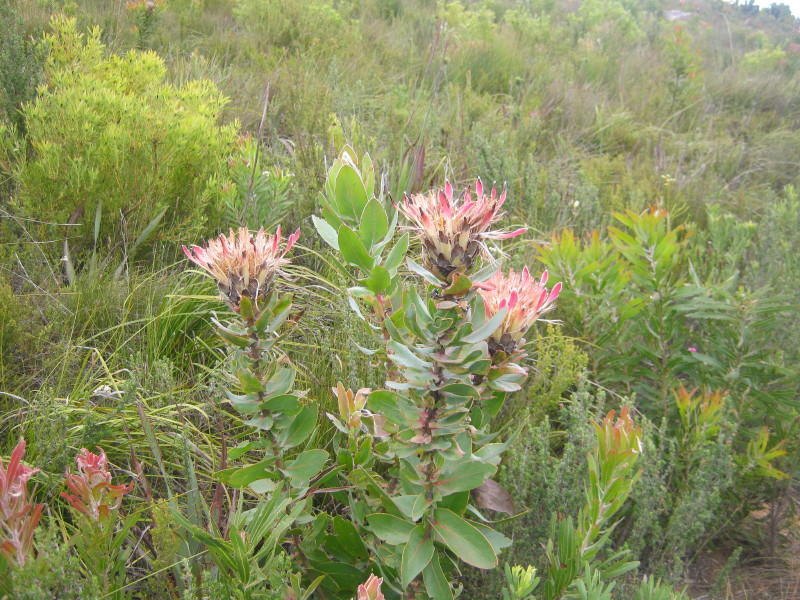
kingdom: Plantae
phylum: Tracheophyta
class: Magnoliopsida
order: Proteales
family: Proteaceae
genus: Protea
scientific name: Protea eximia
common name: Broad-leaved sugarbush
